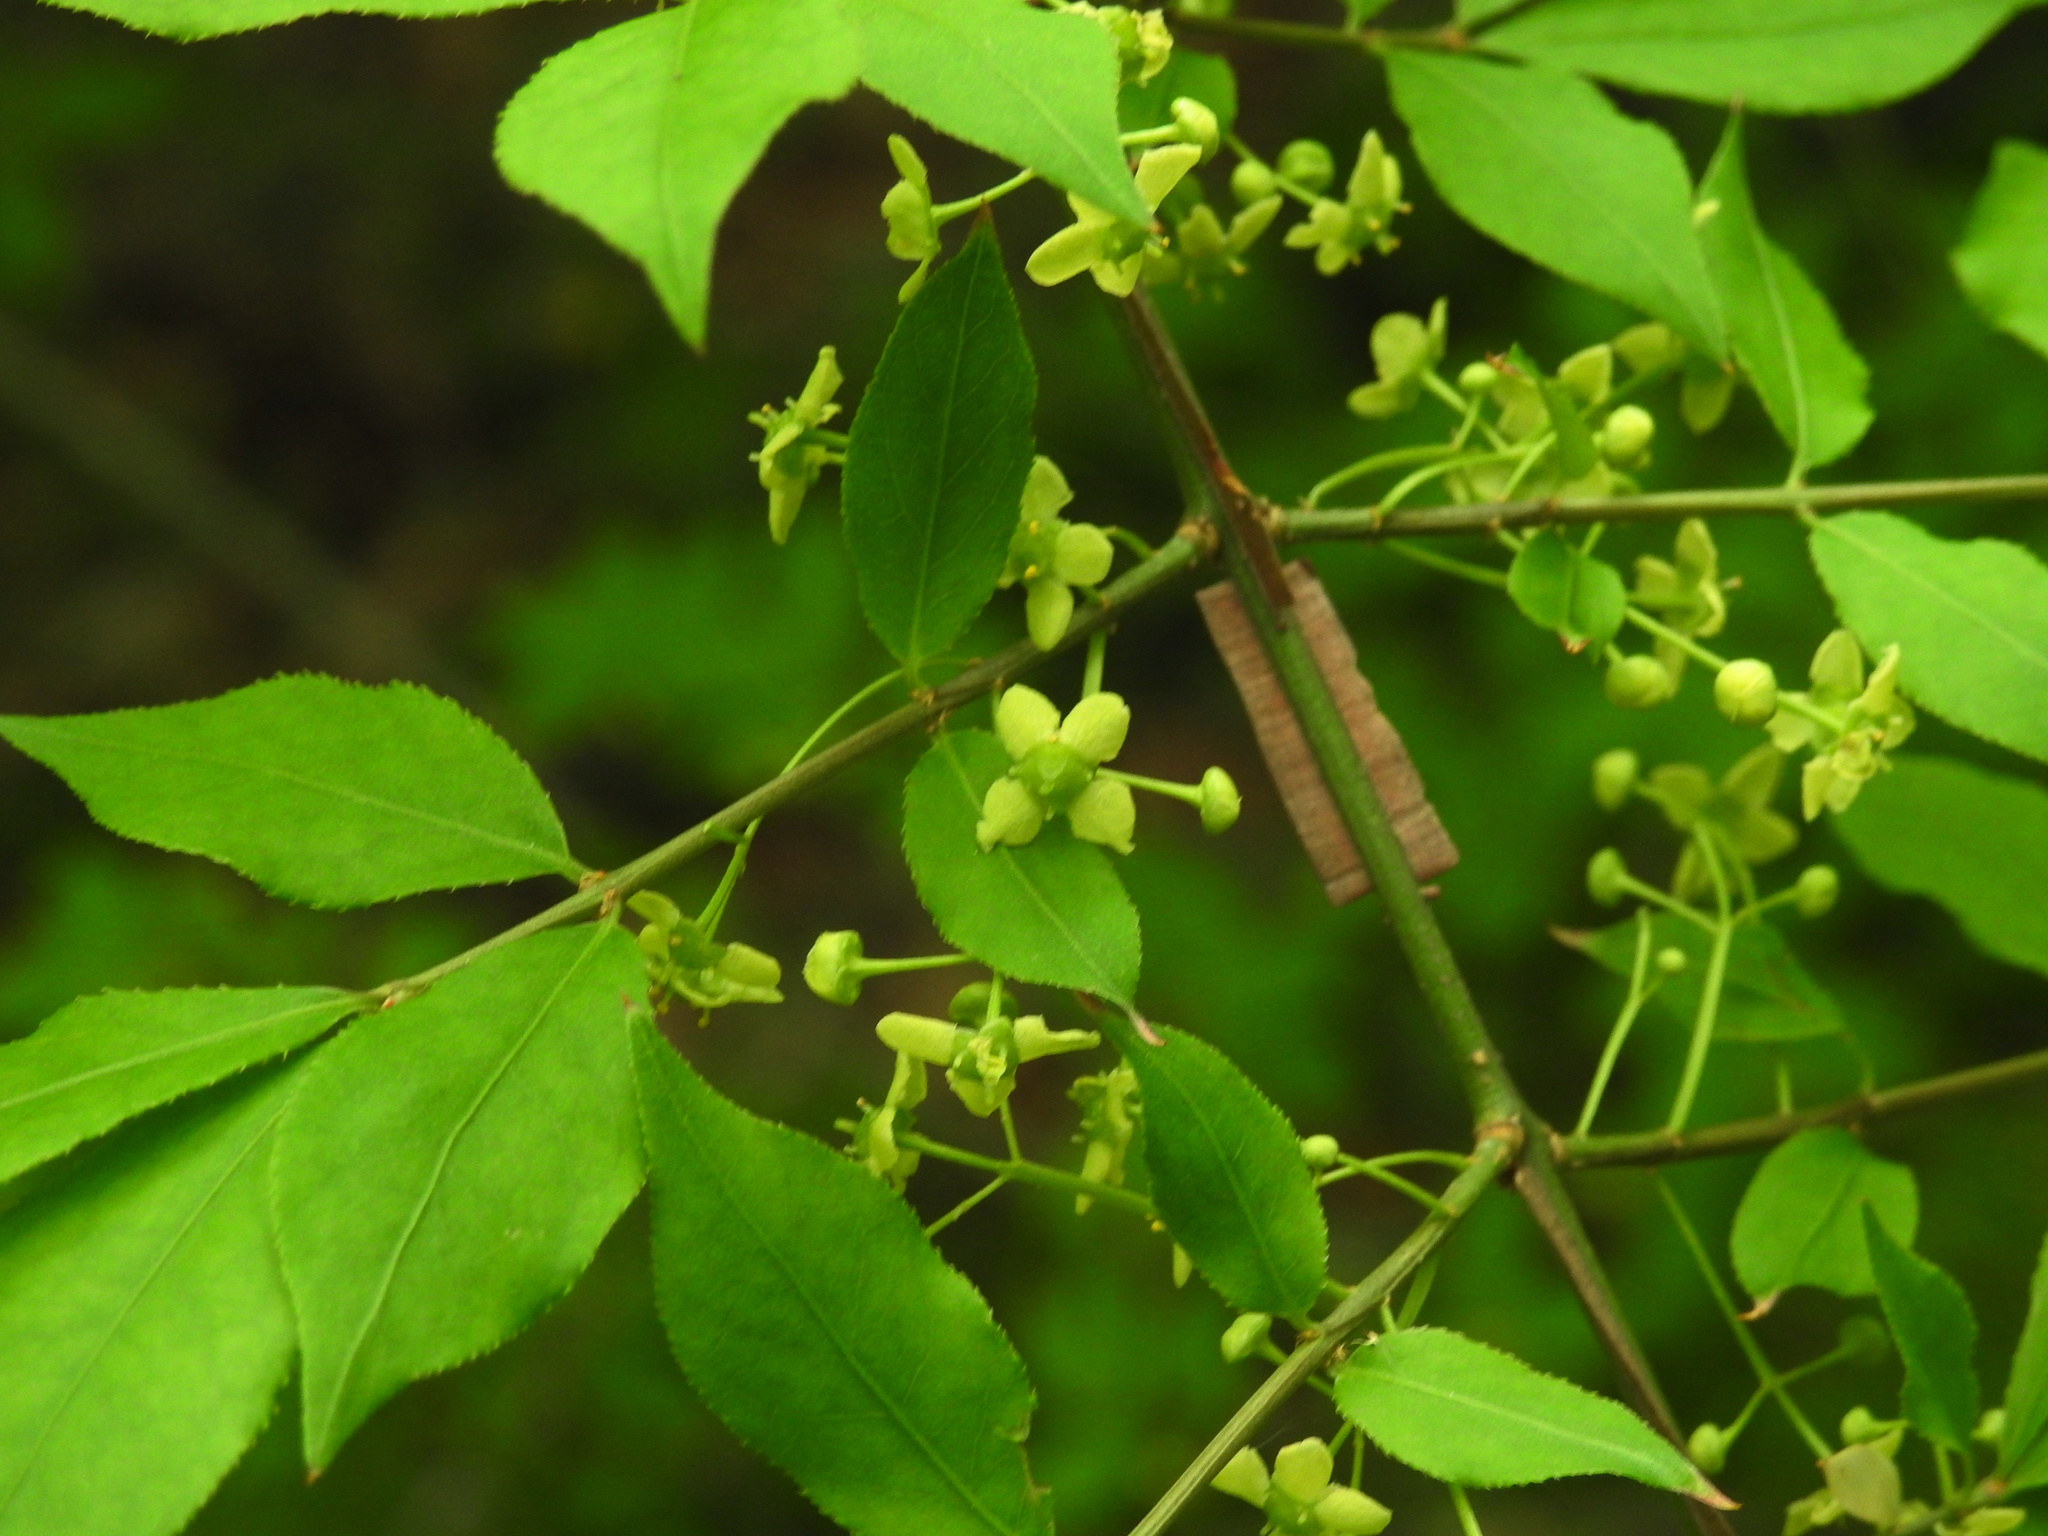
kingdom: Plantae
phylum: Tracheophyta
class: Magnoliopsida
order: Celastrales
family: Celastraceae
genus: Euonymus
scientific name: Euonymus alatus
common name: Winged euonymus
